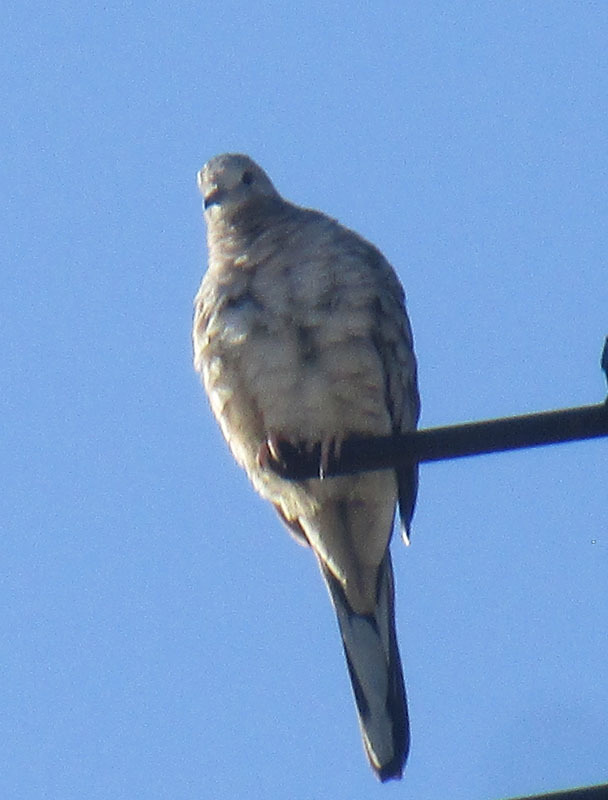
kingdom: Animalia
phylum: Chordata
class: Aves
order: Columbiformes
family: Columbidae
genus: Columbina
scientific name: Columbina inca
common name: Inca dove
